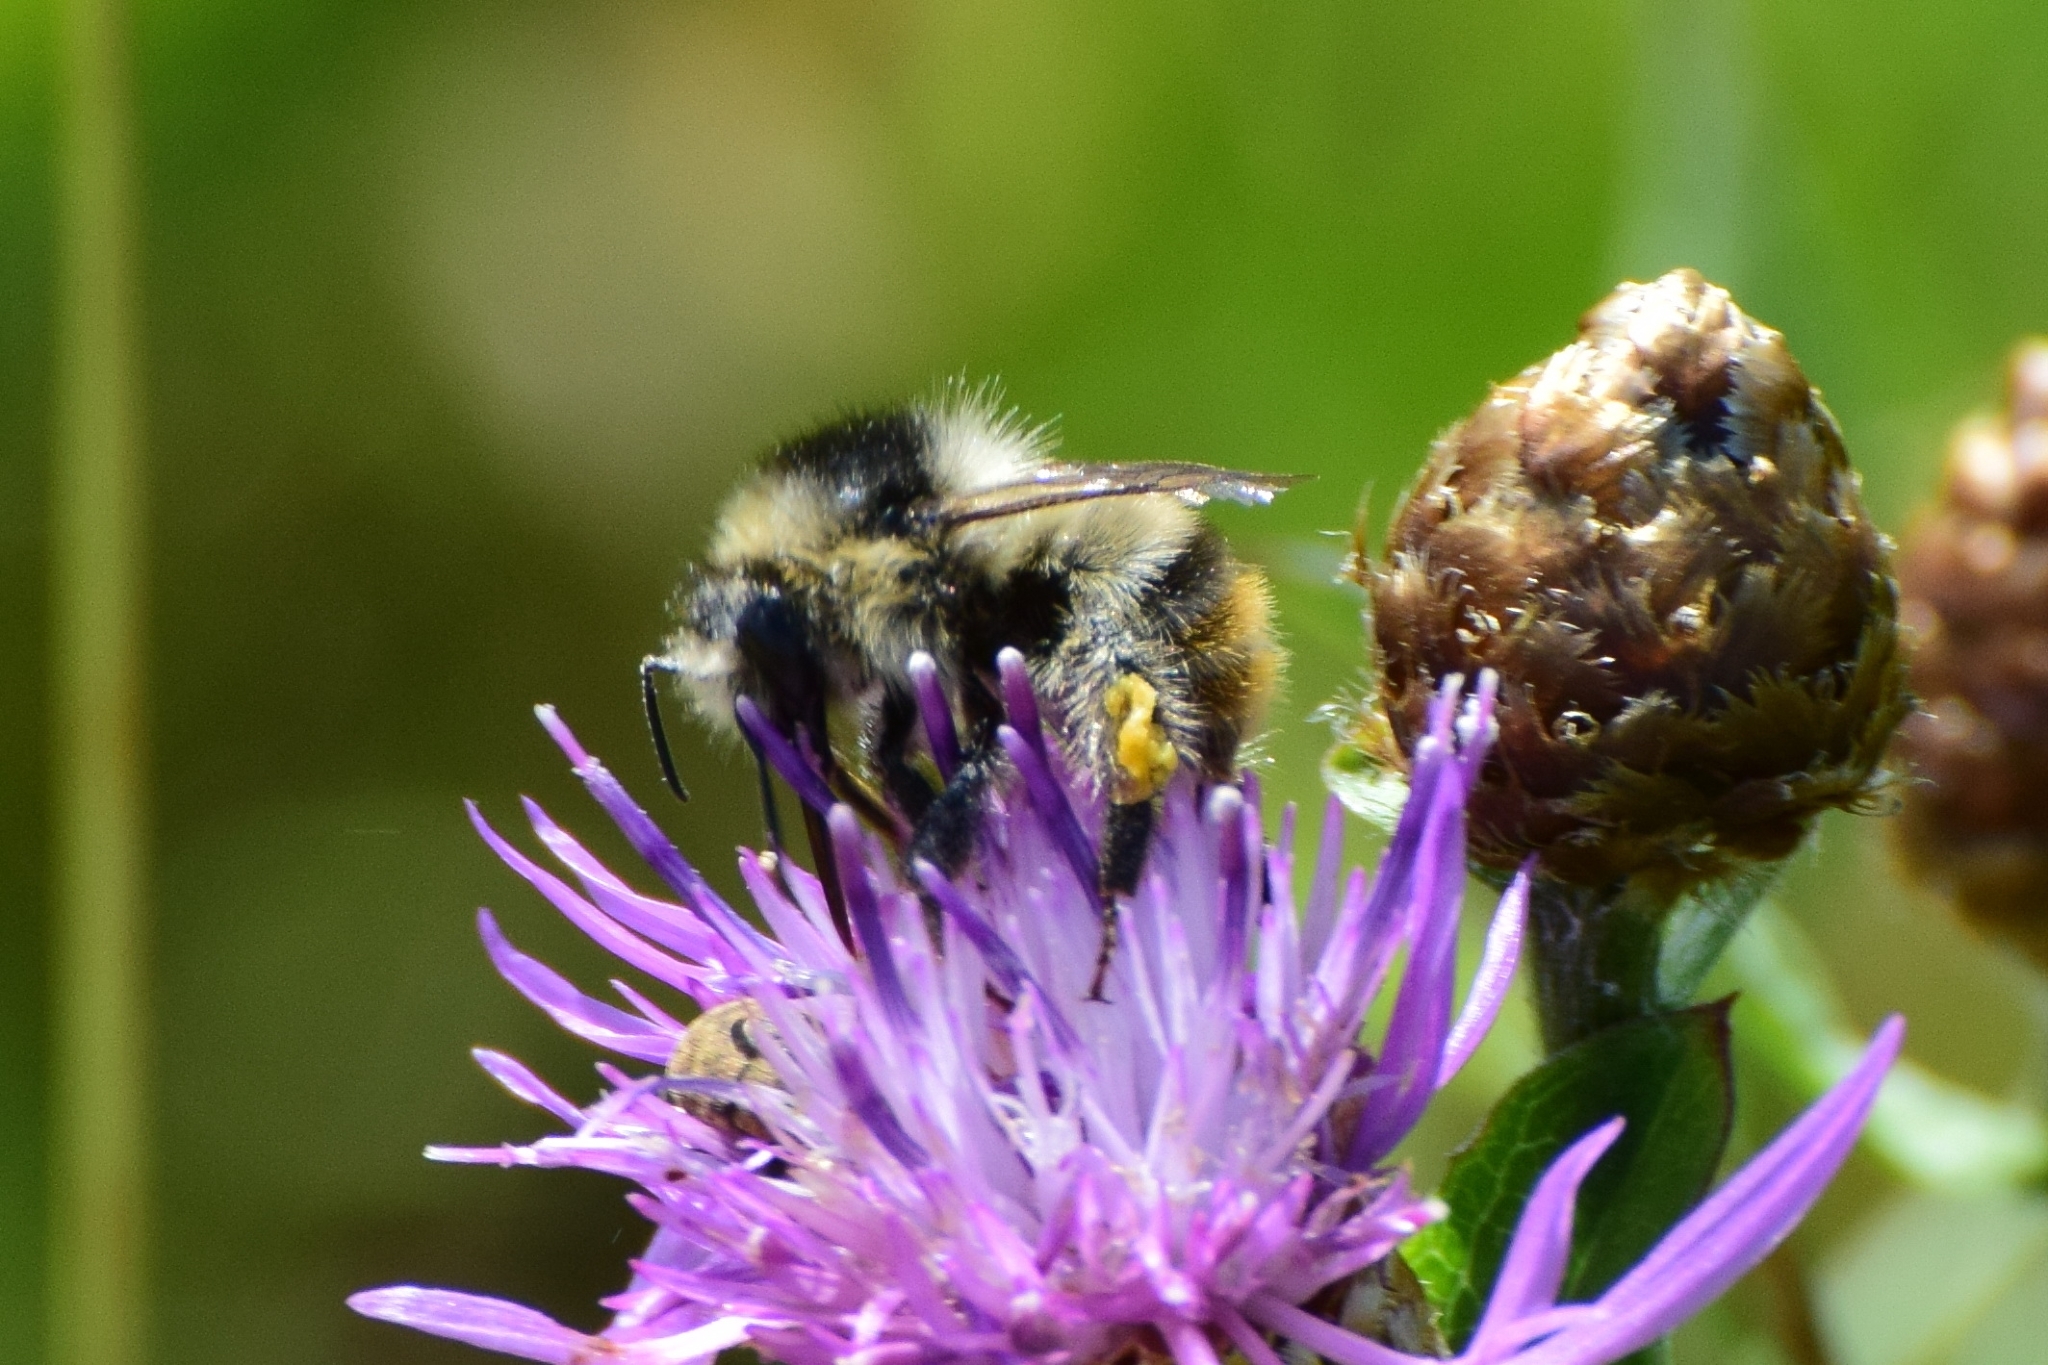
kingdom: Animalia
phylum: Arthropoda
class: Insecta
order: Hymenoptera
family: Apidae
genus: Bombus
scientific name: Bombus sylvarum
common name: Shrill carder bee
